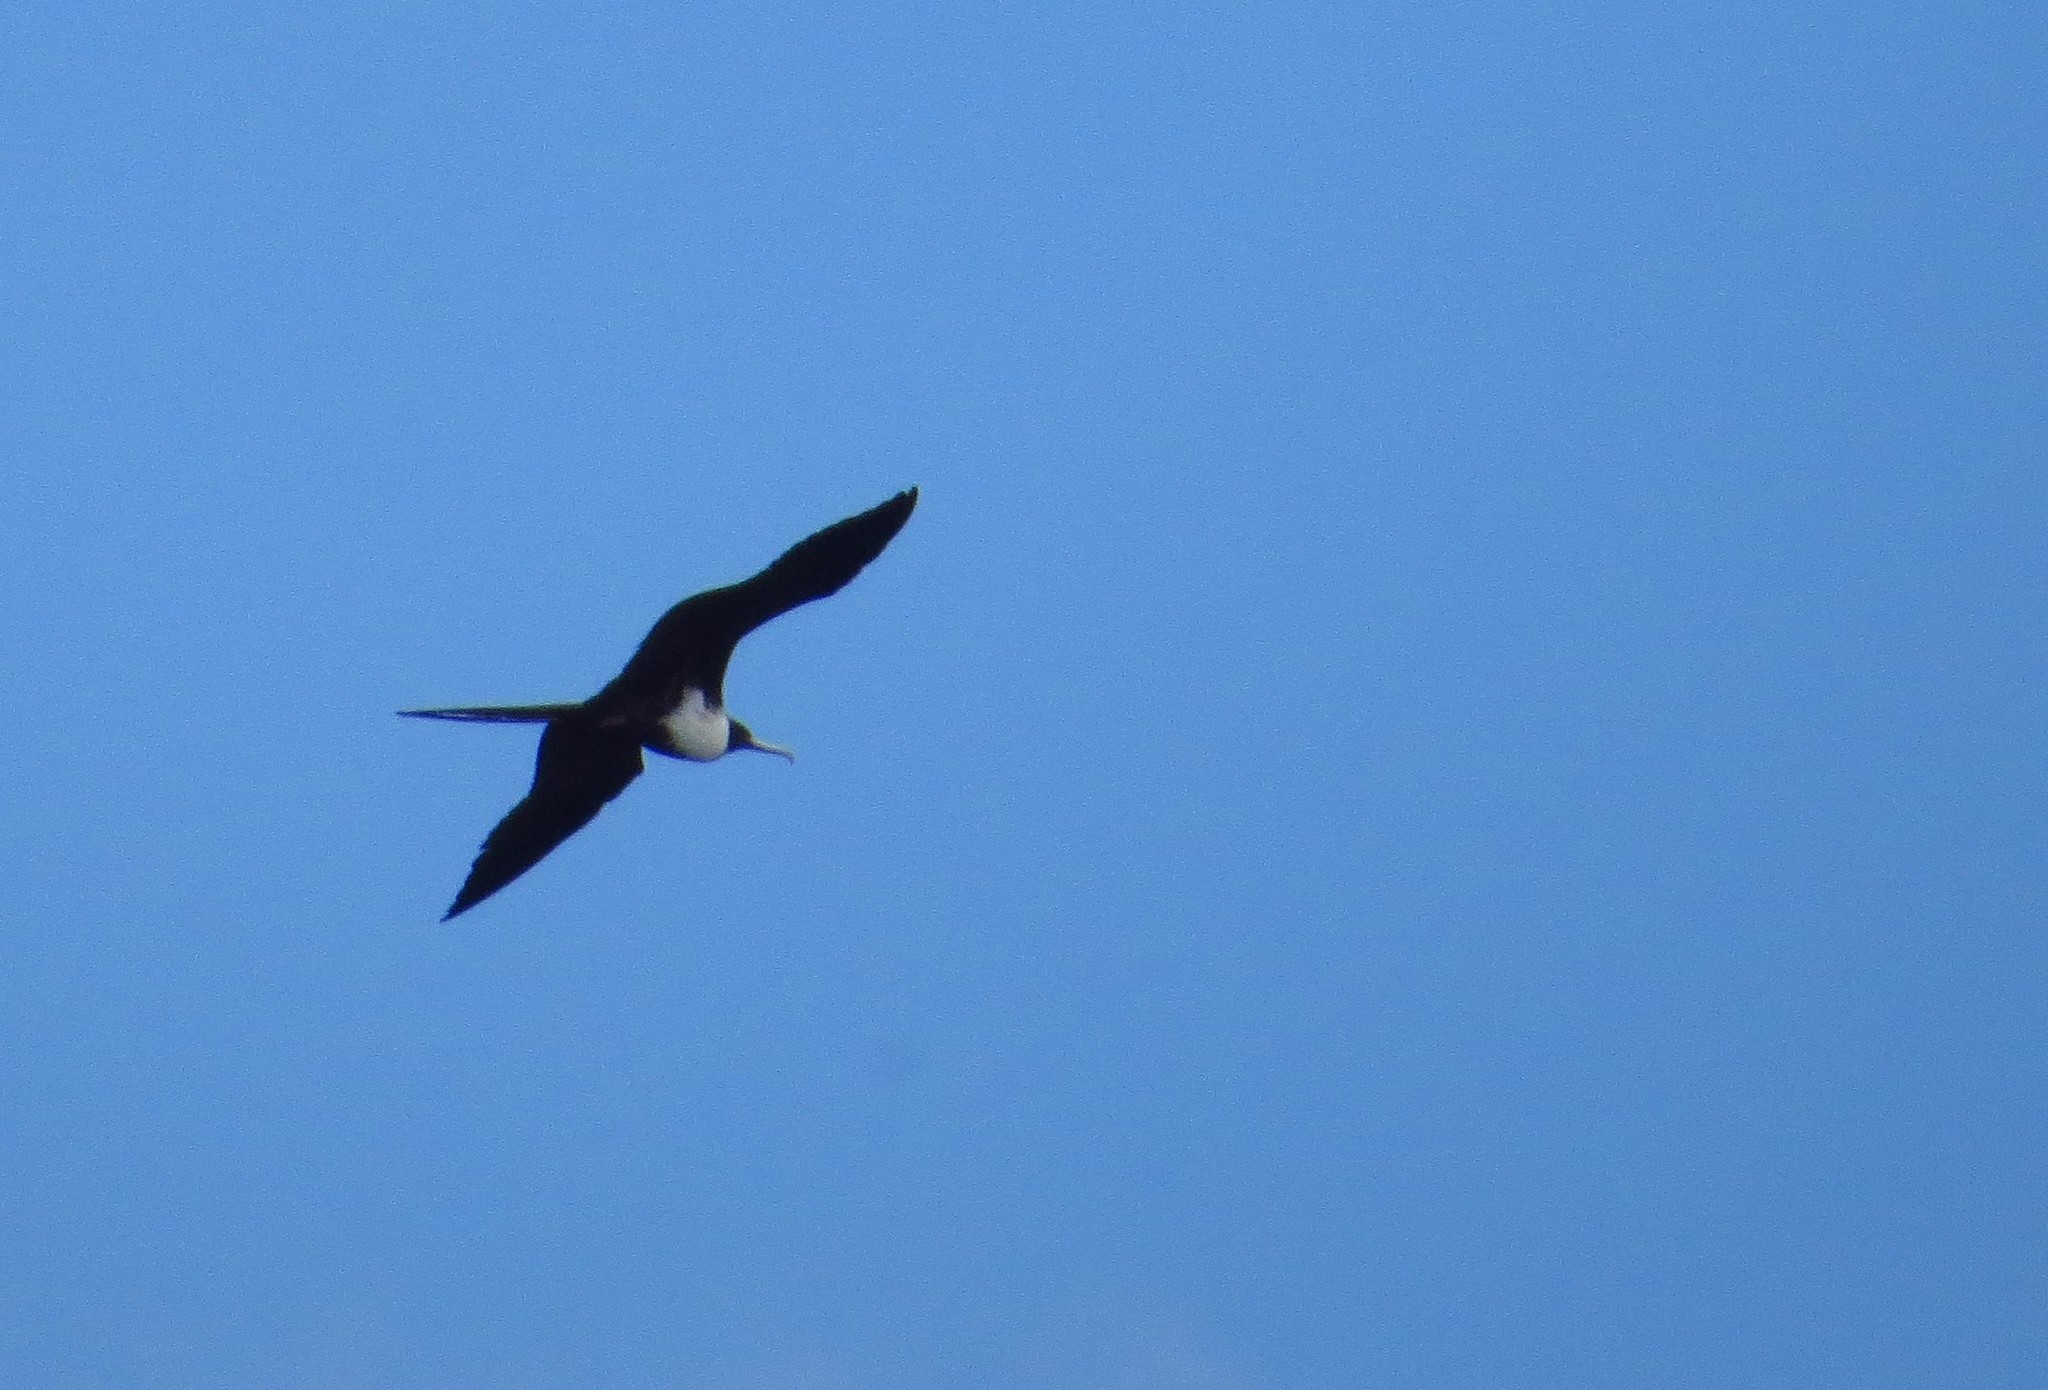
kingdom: Animalia
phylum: Chordata
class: Aves
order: Suliformes
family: Fregatidae
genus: Fregata
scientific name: Fregata magnificens
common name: Magnificent frigatebird
